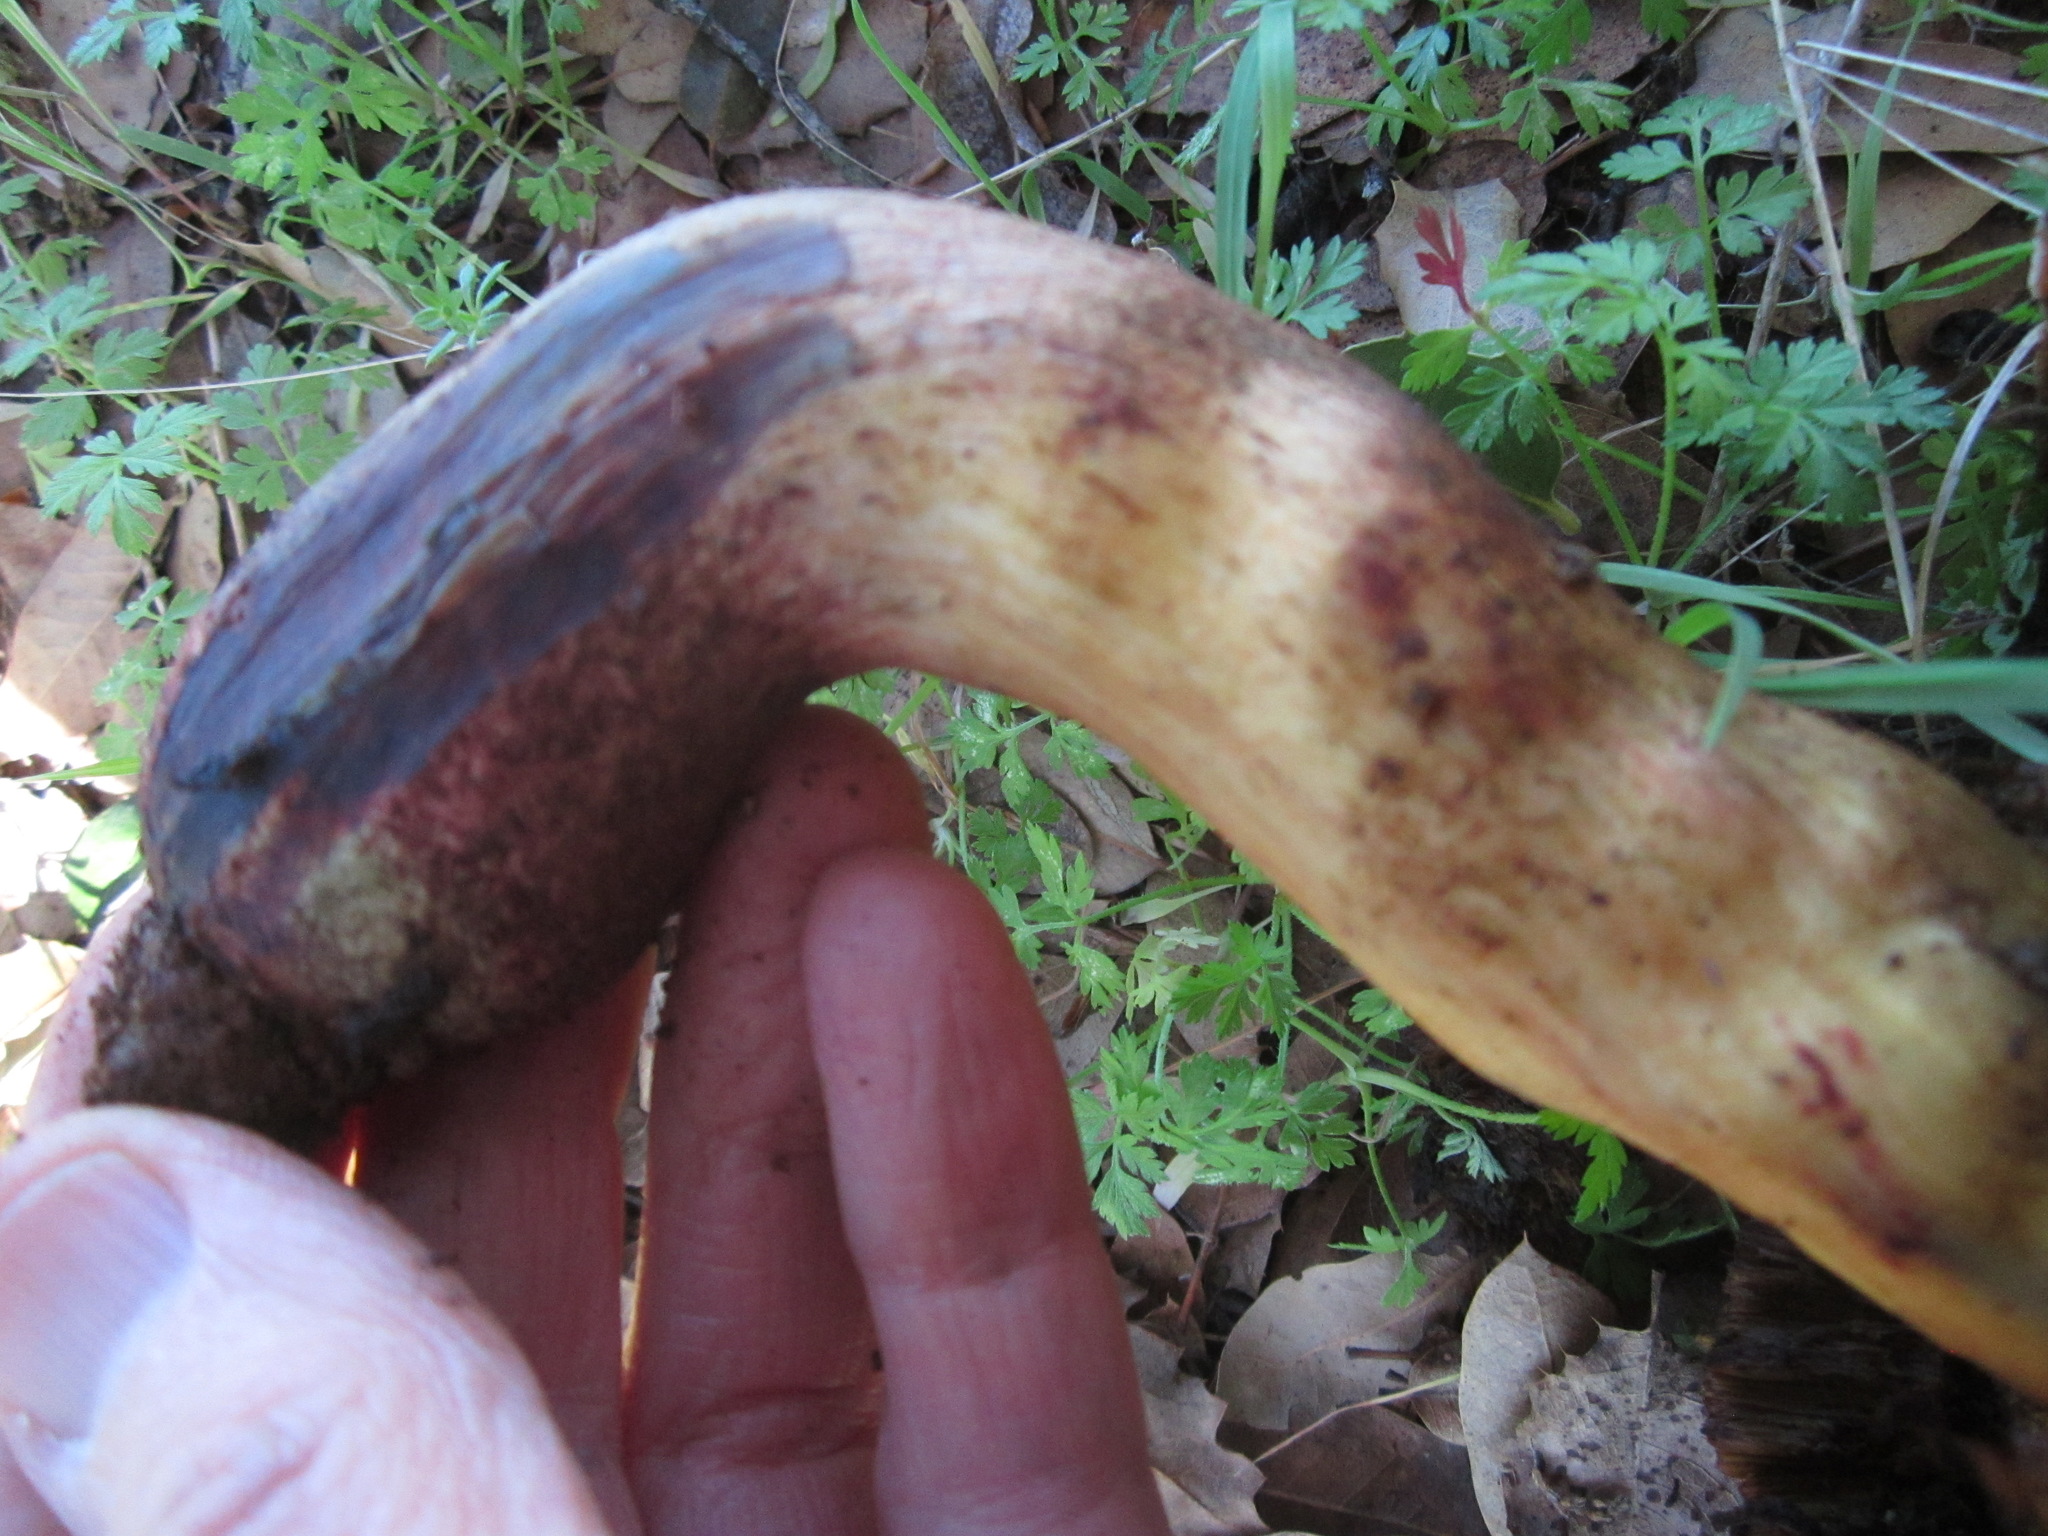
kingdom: Fungi
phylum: Basidiomycota
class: Agaricomycetes
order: Boletales
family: Boletaceae
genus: Suillellus
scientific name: Suillellus amygdalinus
